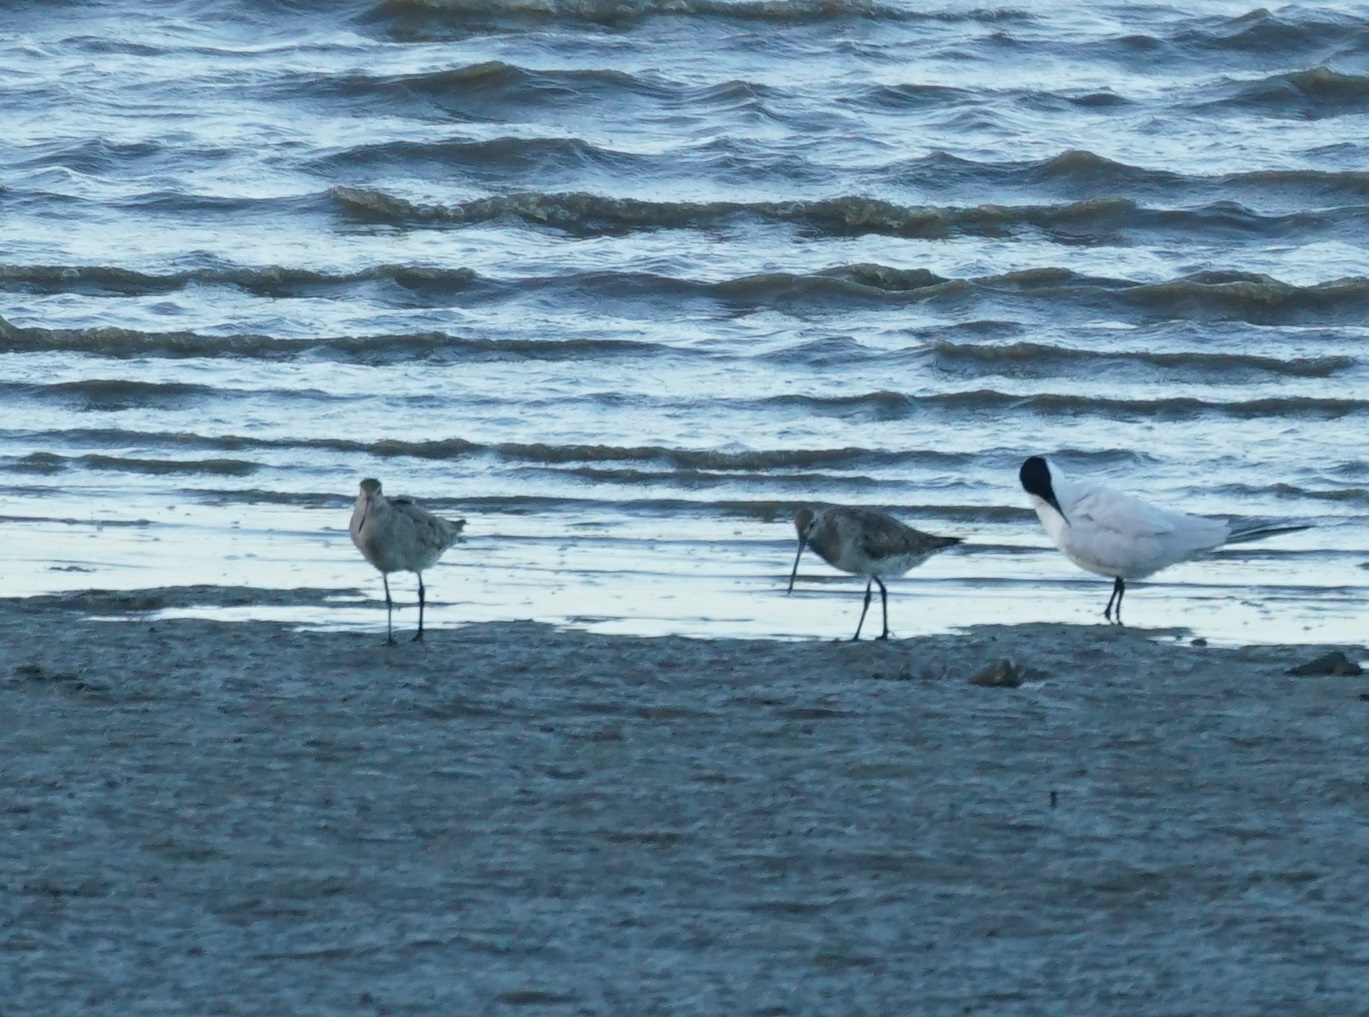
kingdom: Animalia
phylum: Chordata
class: Aves
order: Charadriiformes
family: Scolopacidae
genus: Limosa
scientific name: Limosa lapponica
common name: Bar-tailed godwit
